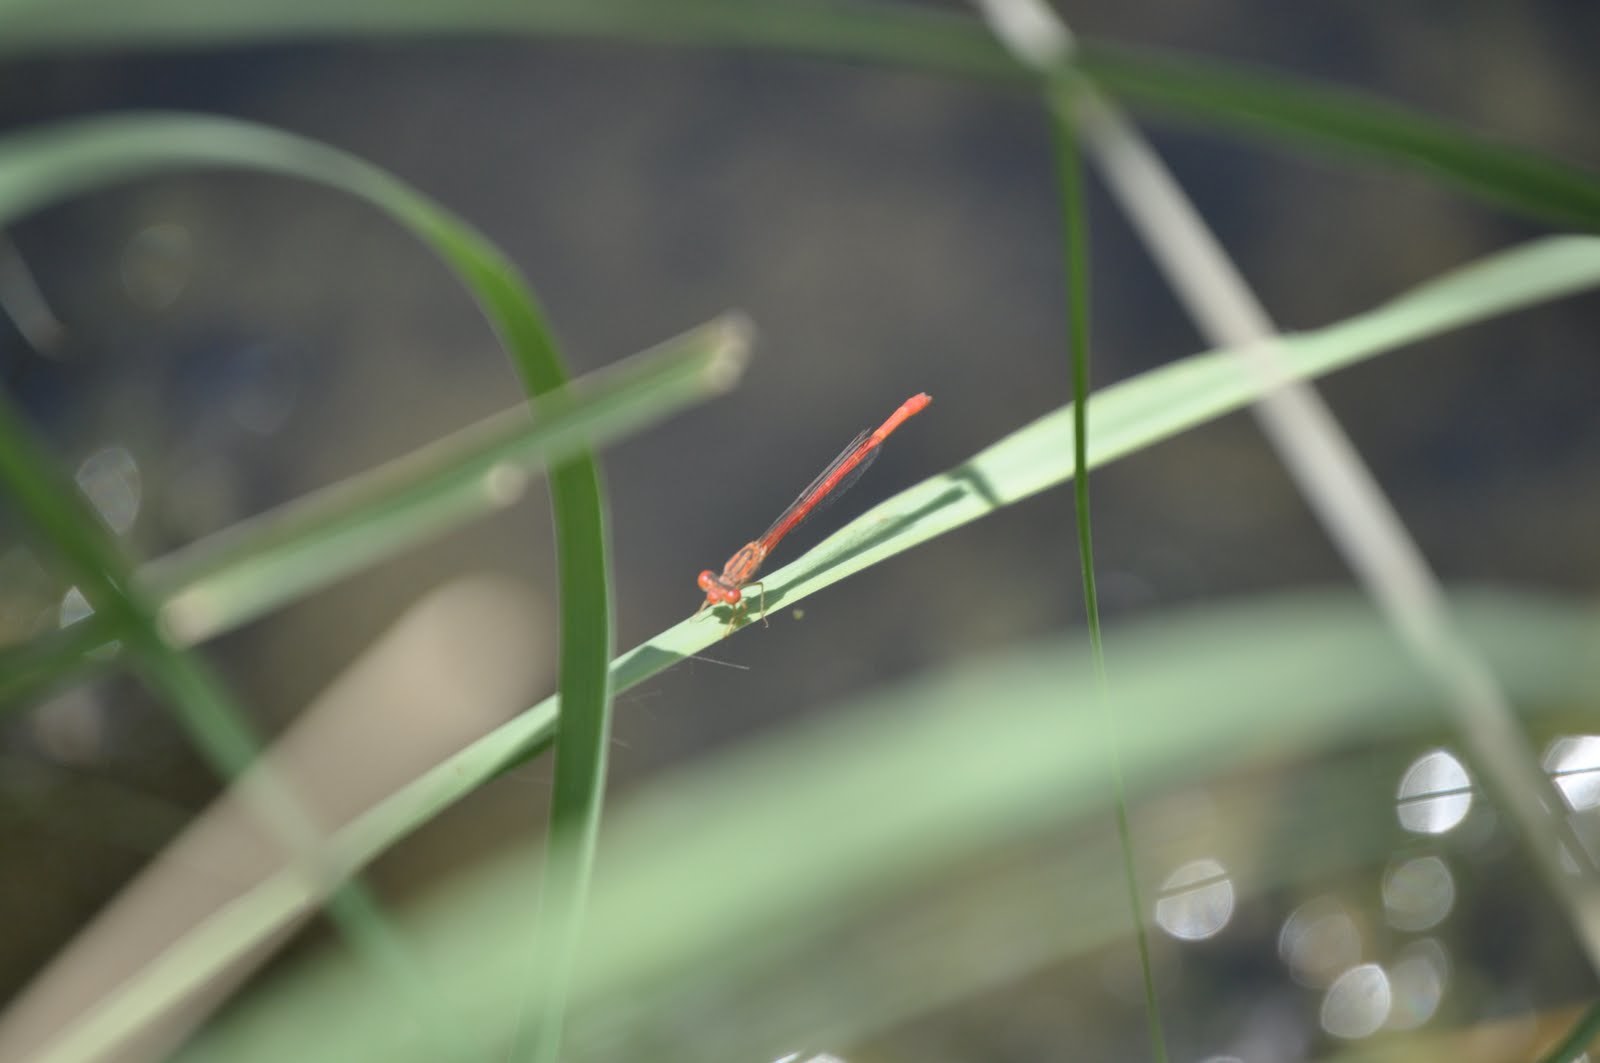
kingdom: Animalia
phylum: Arthropoda
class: Insecta
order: Odonata
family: Coenagrionidae
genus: Telebasis
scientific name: Telebasis salva
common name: Desert firetail
